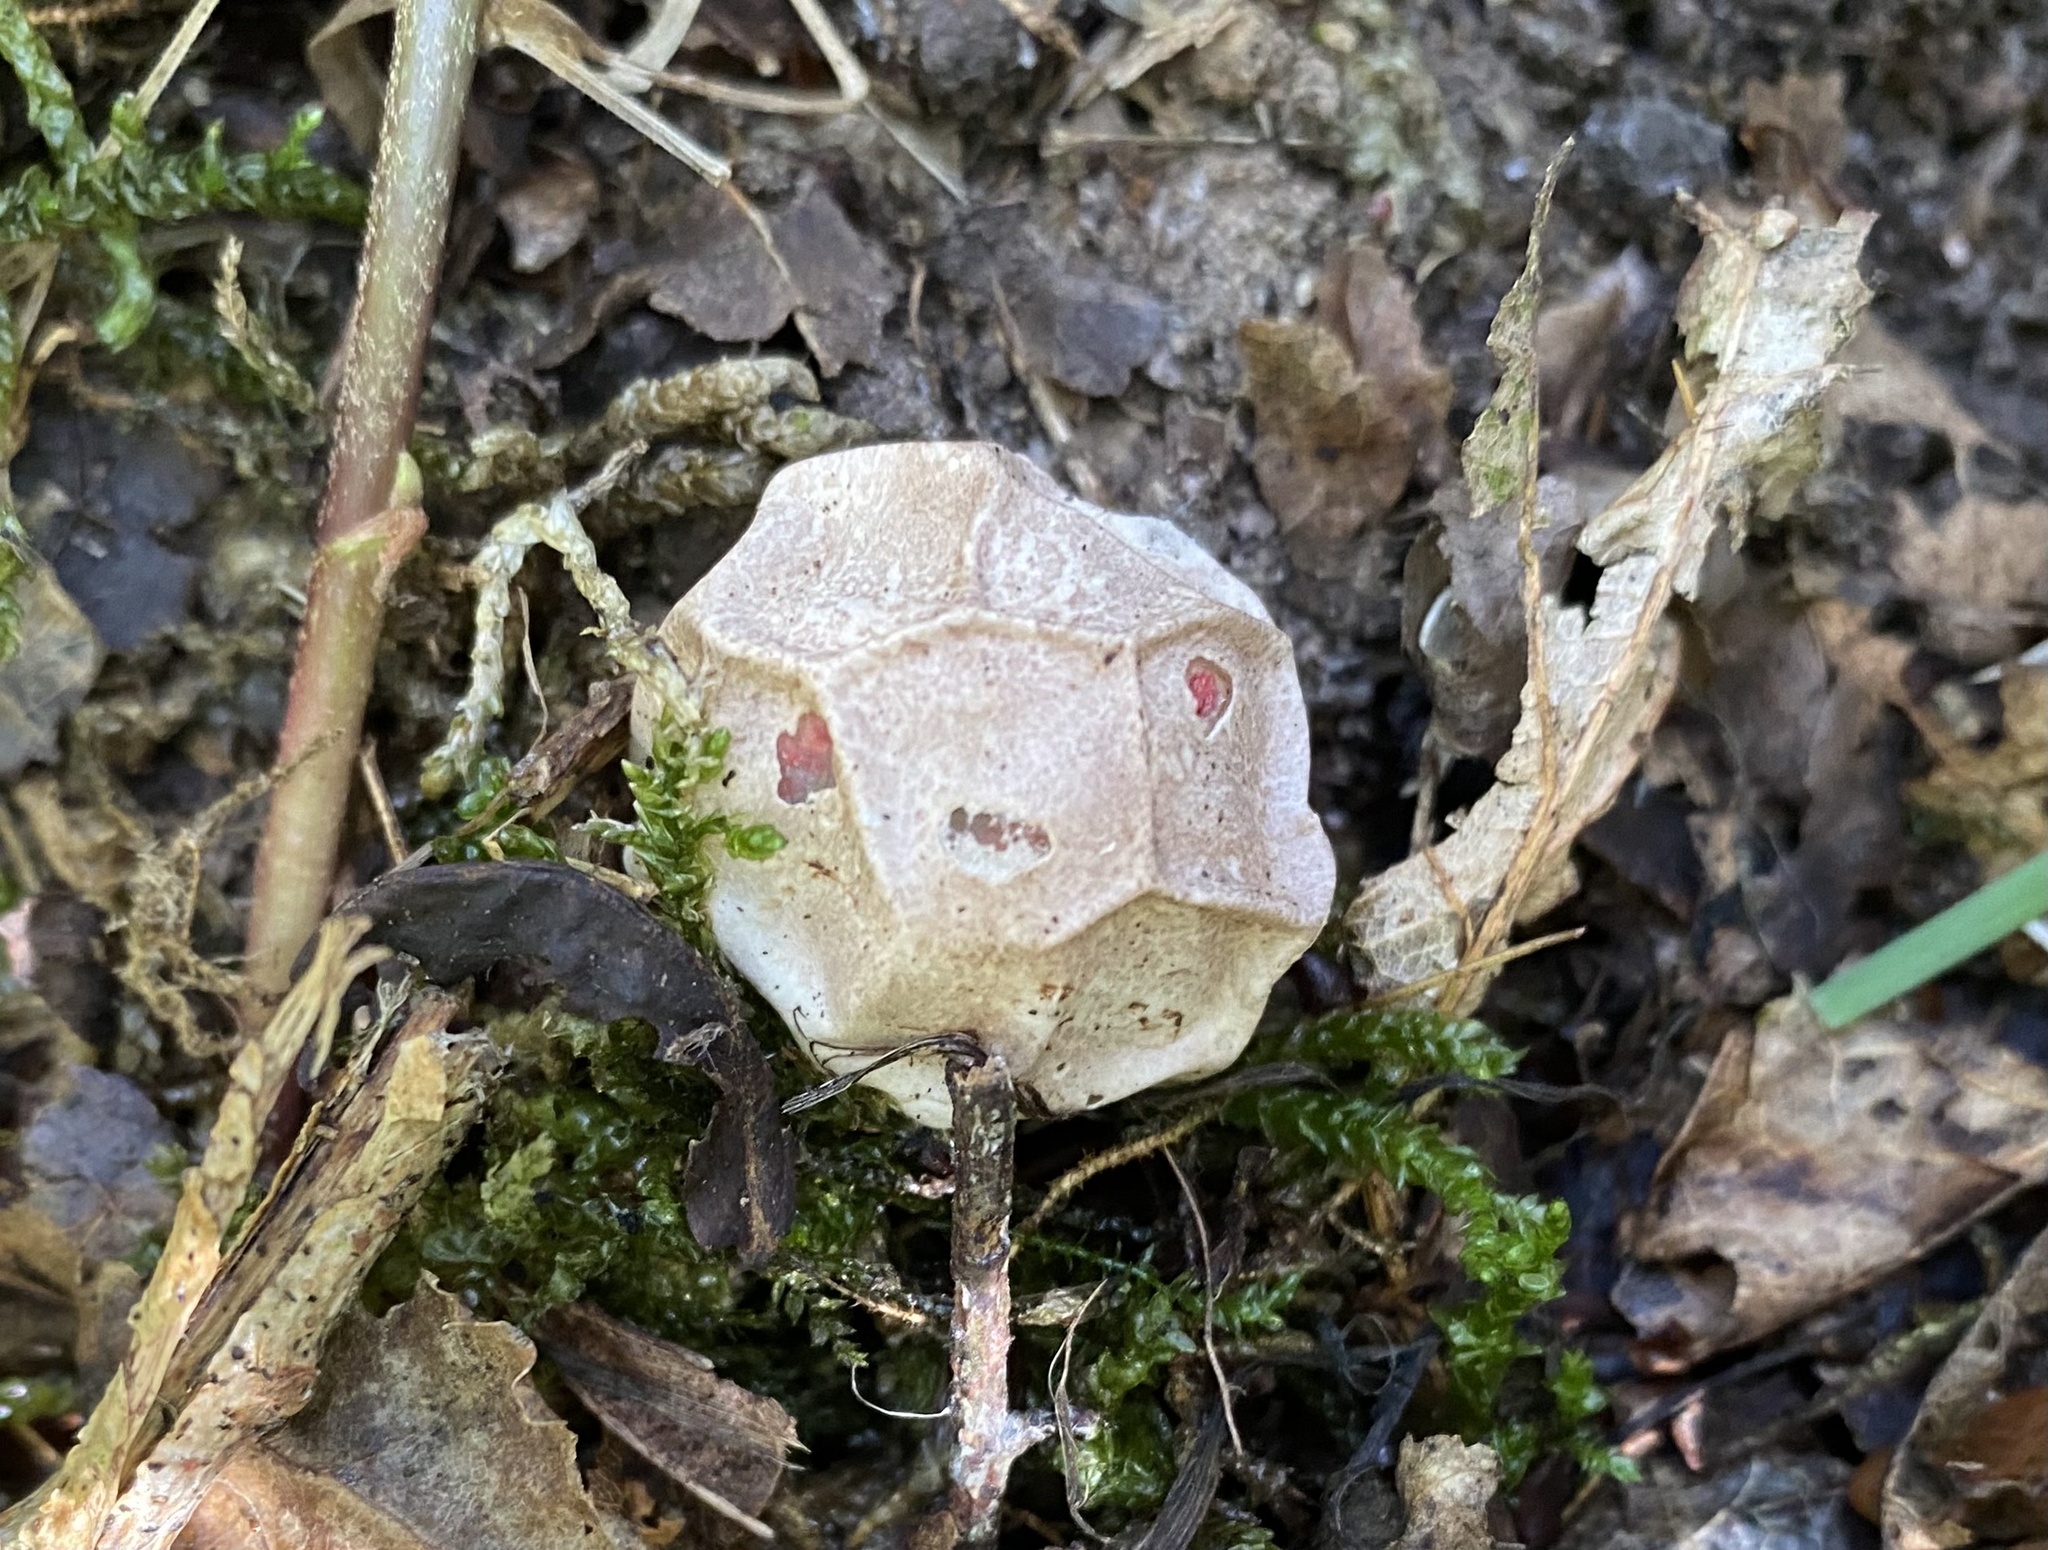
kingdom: Fungi
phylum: Basidiomycota
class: Agaricomycetes
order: Phallales
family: Phallaceae
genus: Clathrus
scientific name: Clathrus ruber
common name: Red cage
